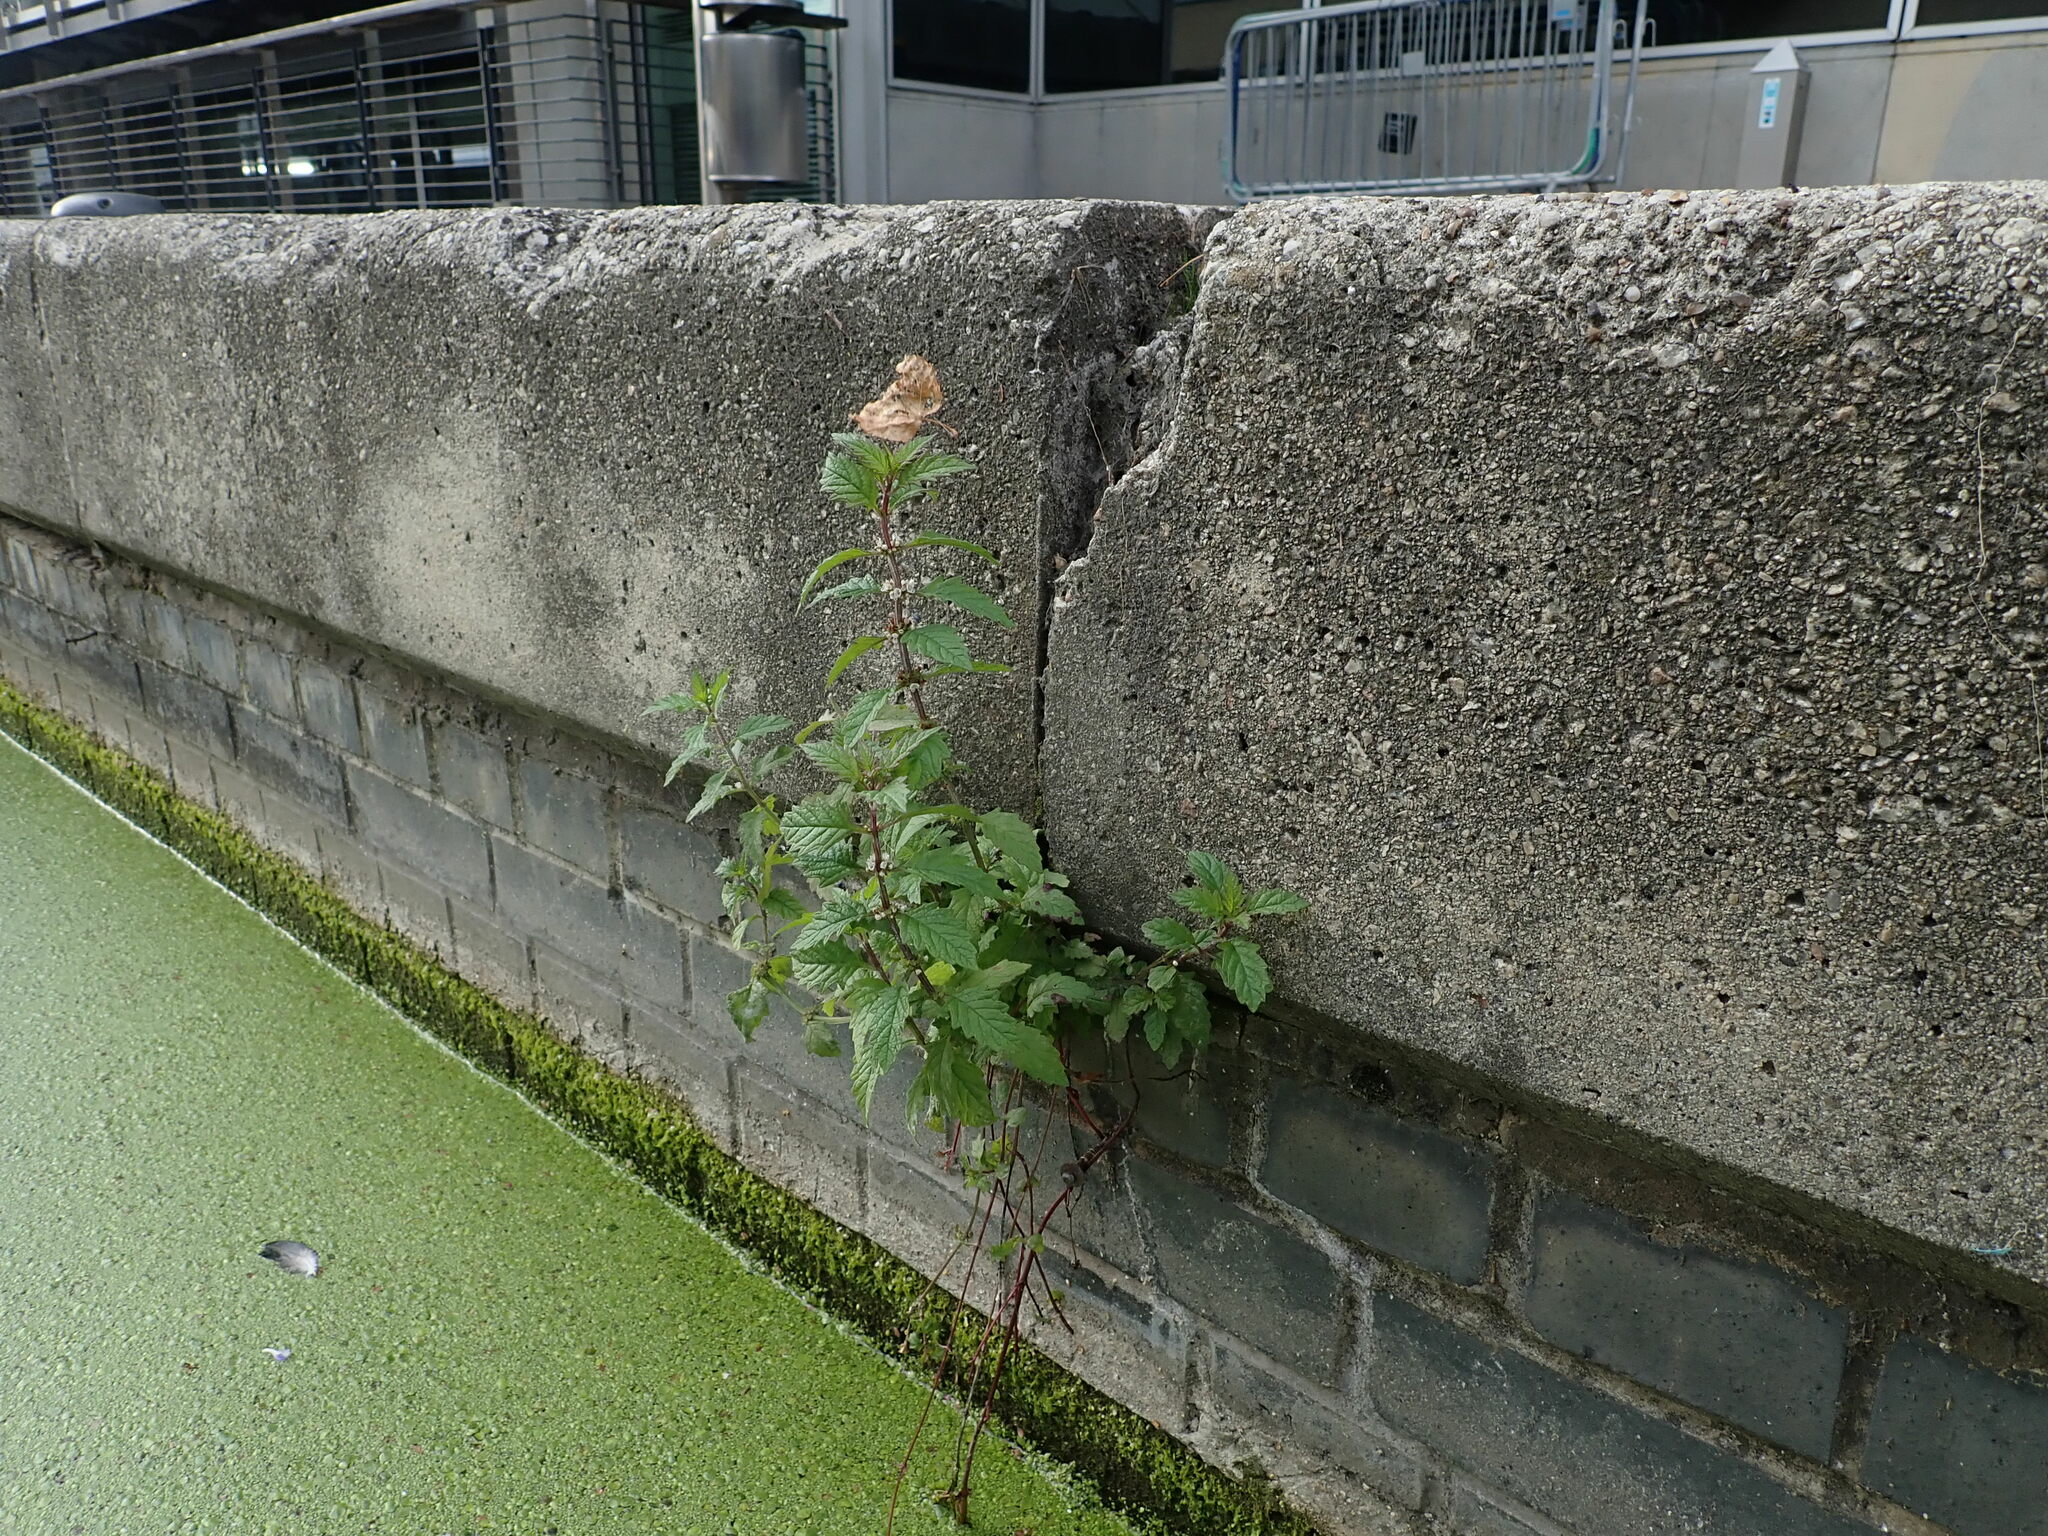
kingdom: Plantae
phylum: Tracheophyta
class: Magnoliopsida
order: Lamiales
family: Lamiaceae
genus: Lycopus
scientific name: Lycopus europaeus
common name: European bugleweed
